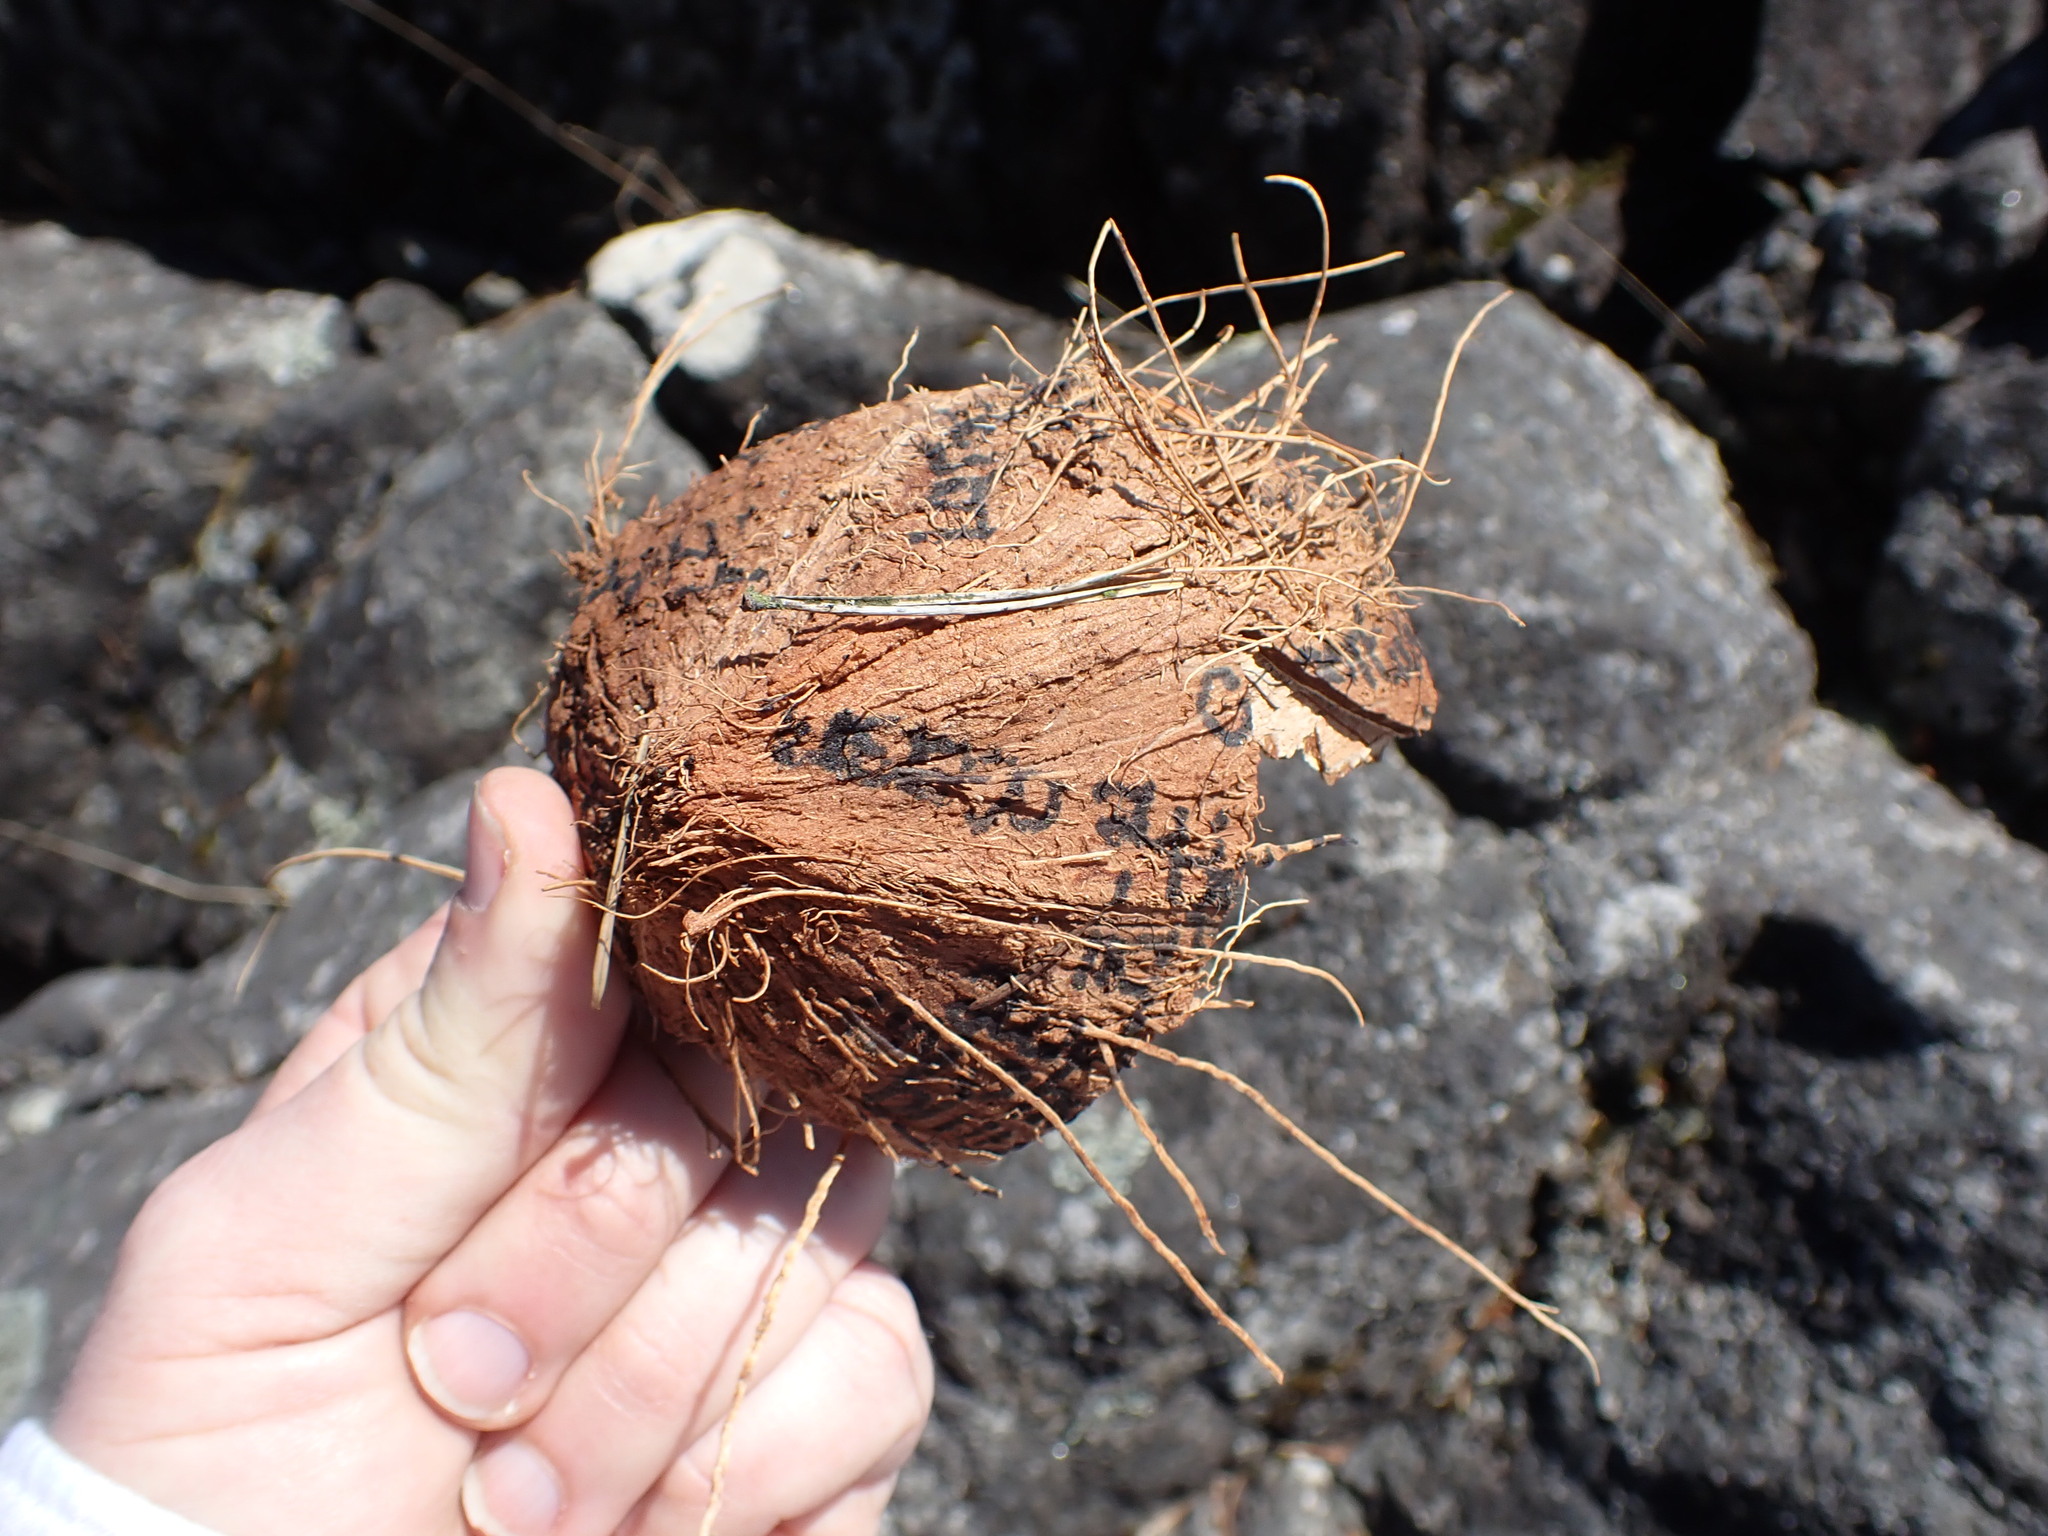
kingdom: Plantae
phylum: Tracheophyta
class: Liliopsida
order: Arecales
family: Arecaceae
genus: Cocos
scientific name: Cocos nucifera
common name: Coconut palm
